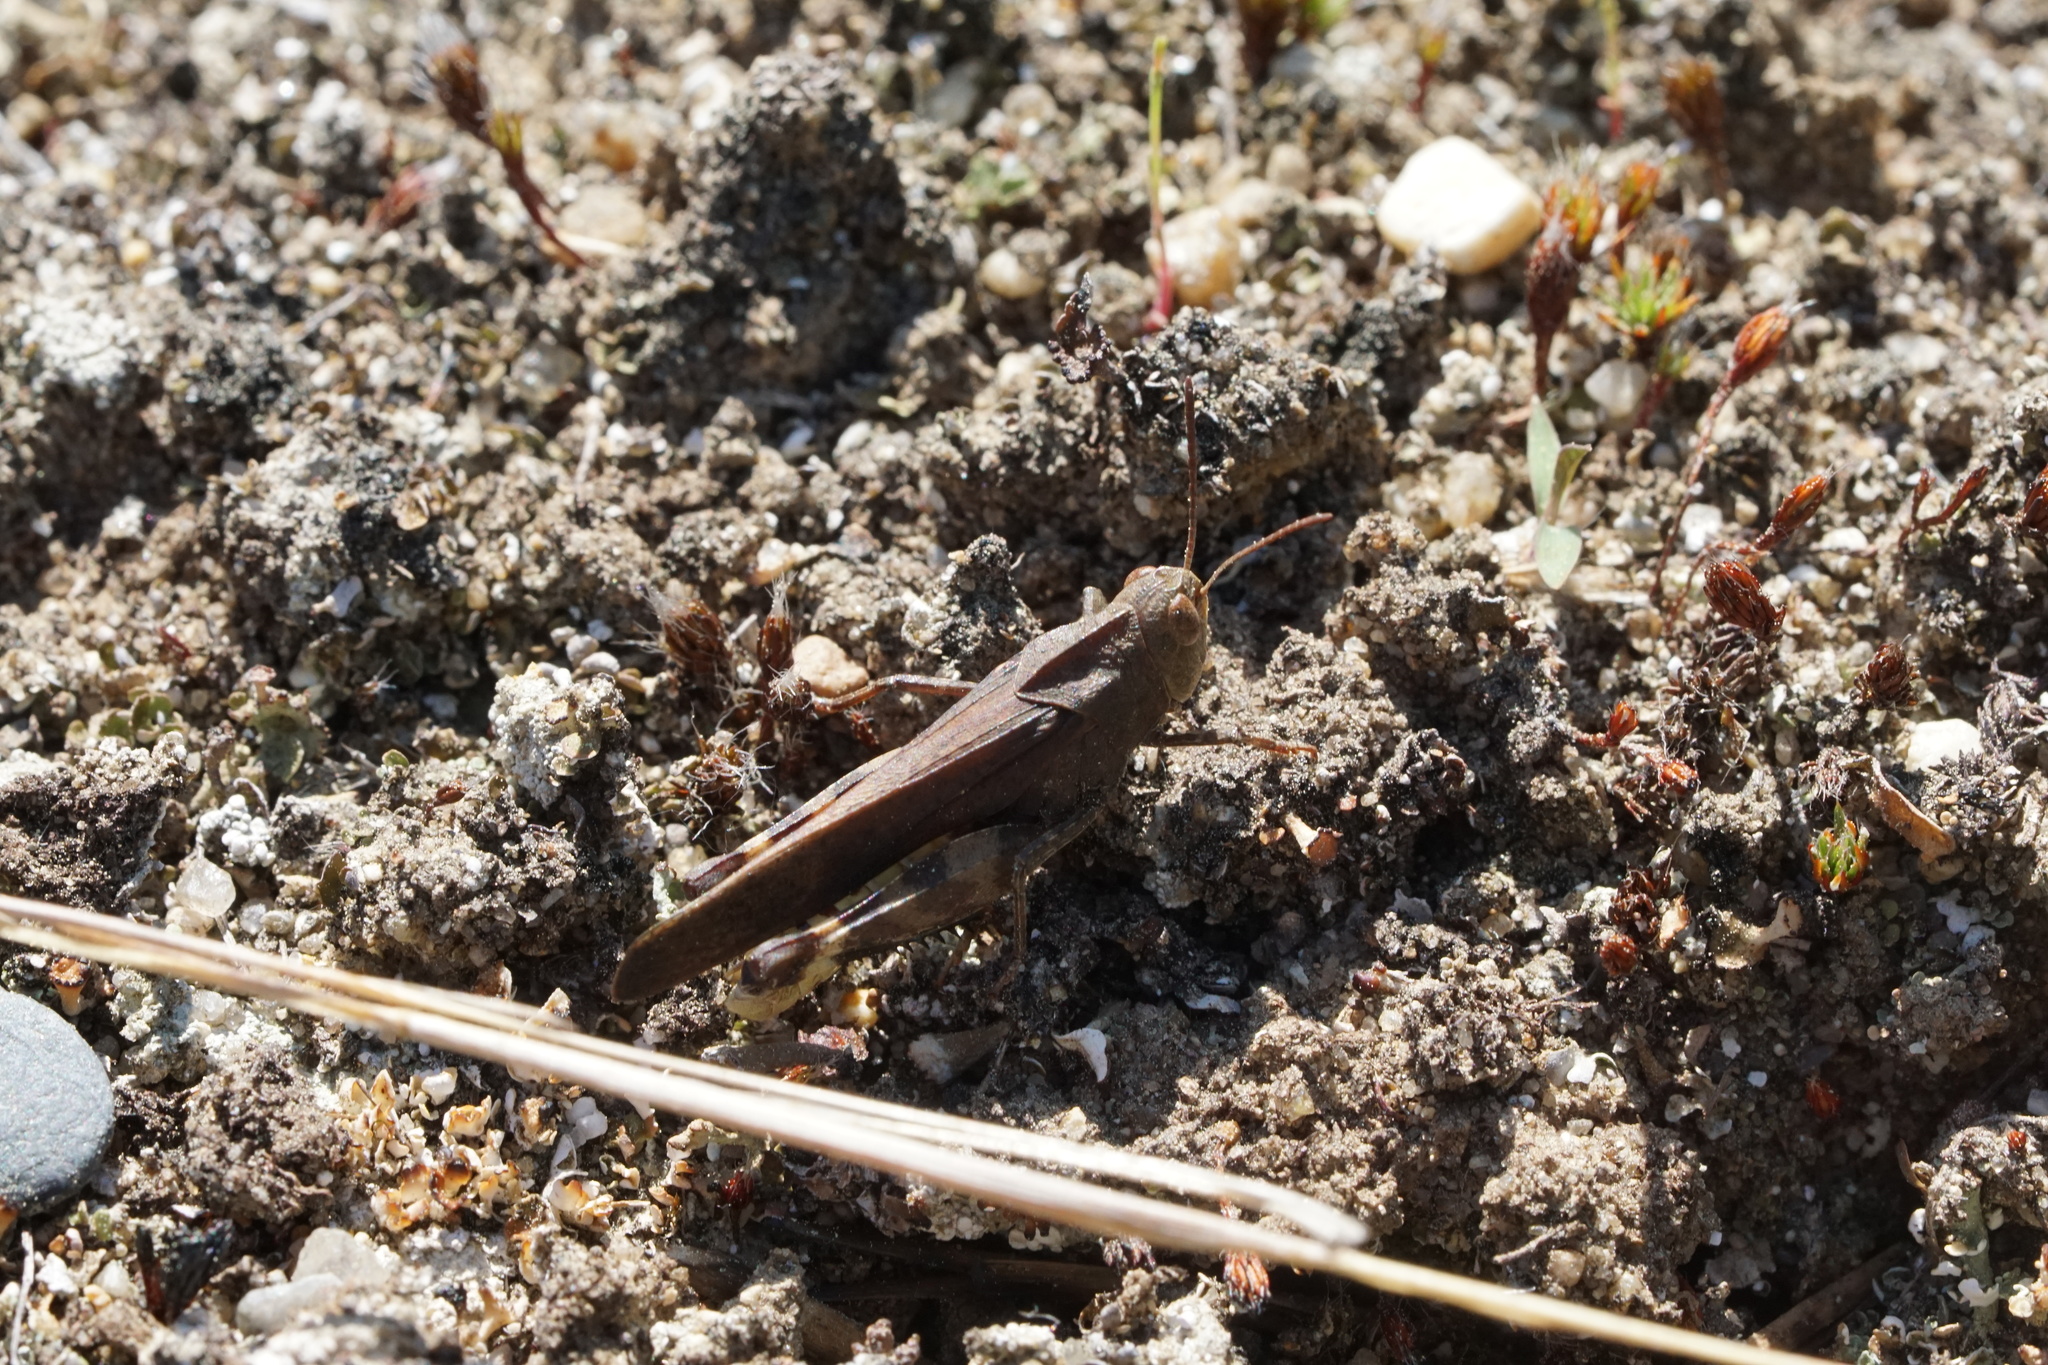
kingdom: Animalia
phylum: Arthropoda
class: Insecta
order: Orthoptera
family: Acrididae
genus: Arphia
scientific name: Arphia sulphurea
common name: Spring yellow-winged locust
